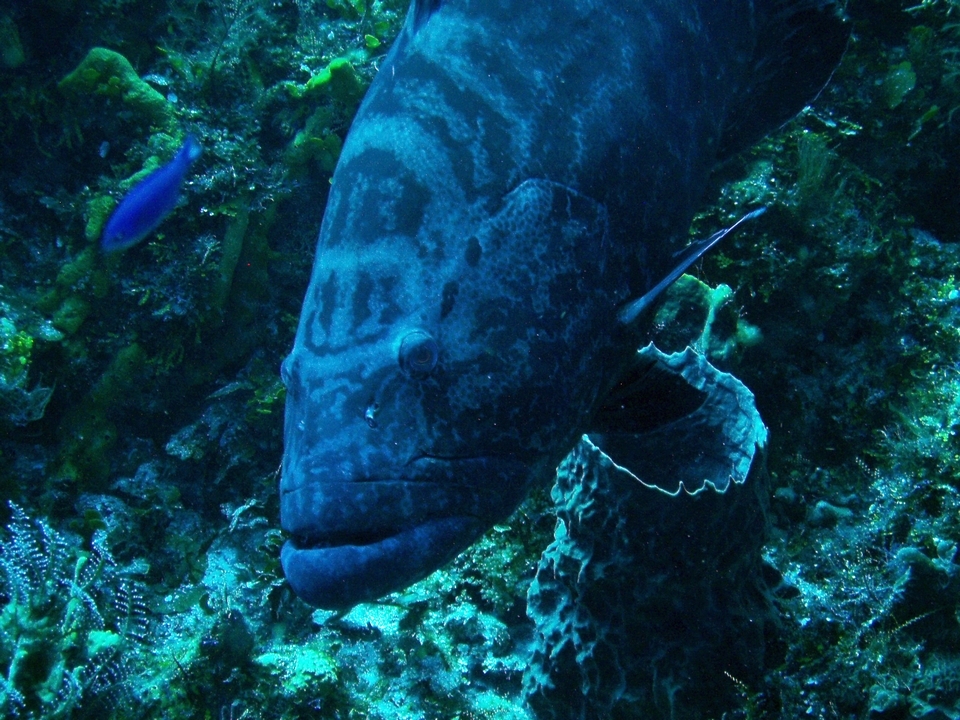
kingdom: Animalia
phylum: Chordata
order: Perciformes
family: Serranidae
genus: Mycteroperca
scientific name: Mycteroperca bonaci
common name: Black grouper
